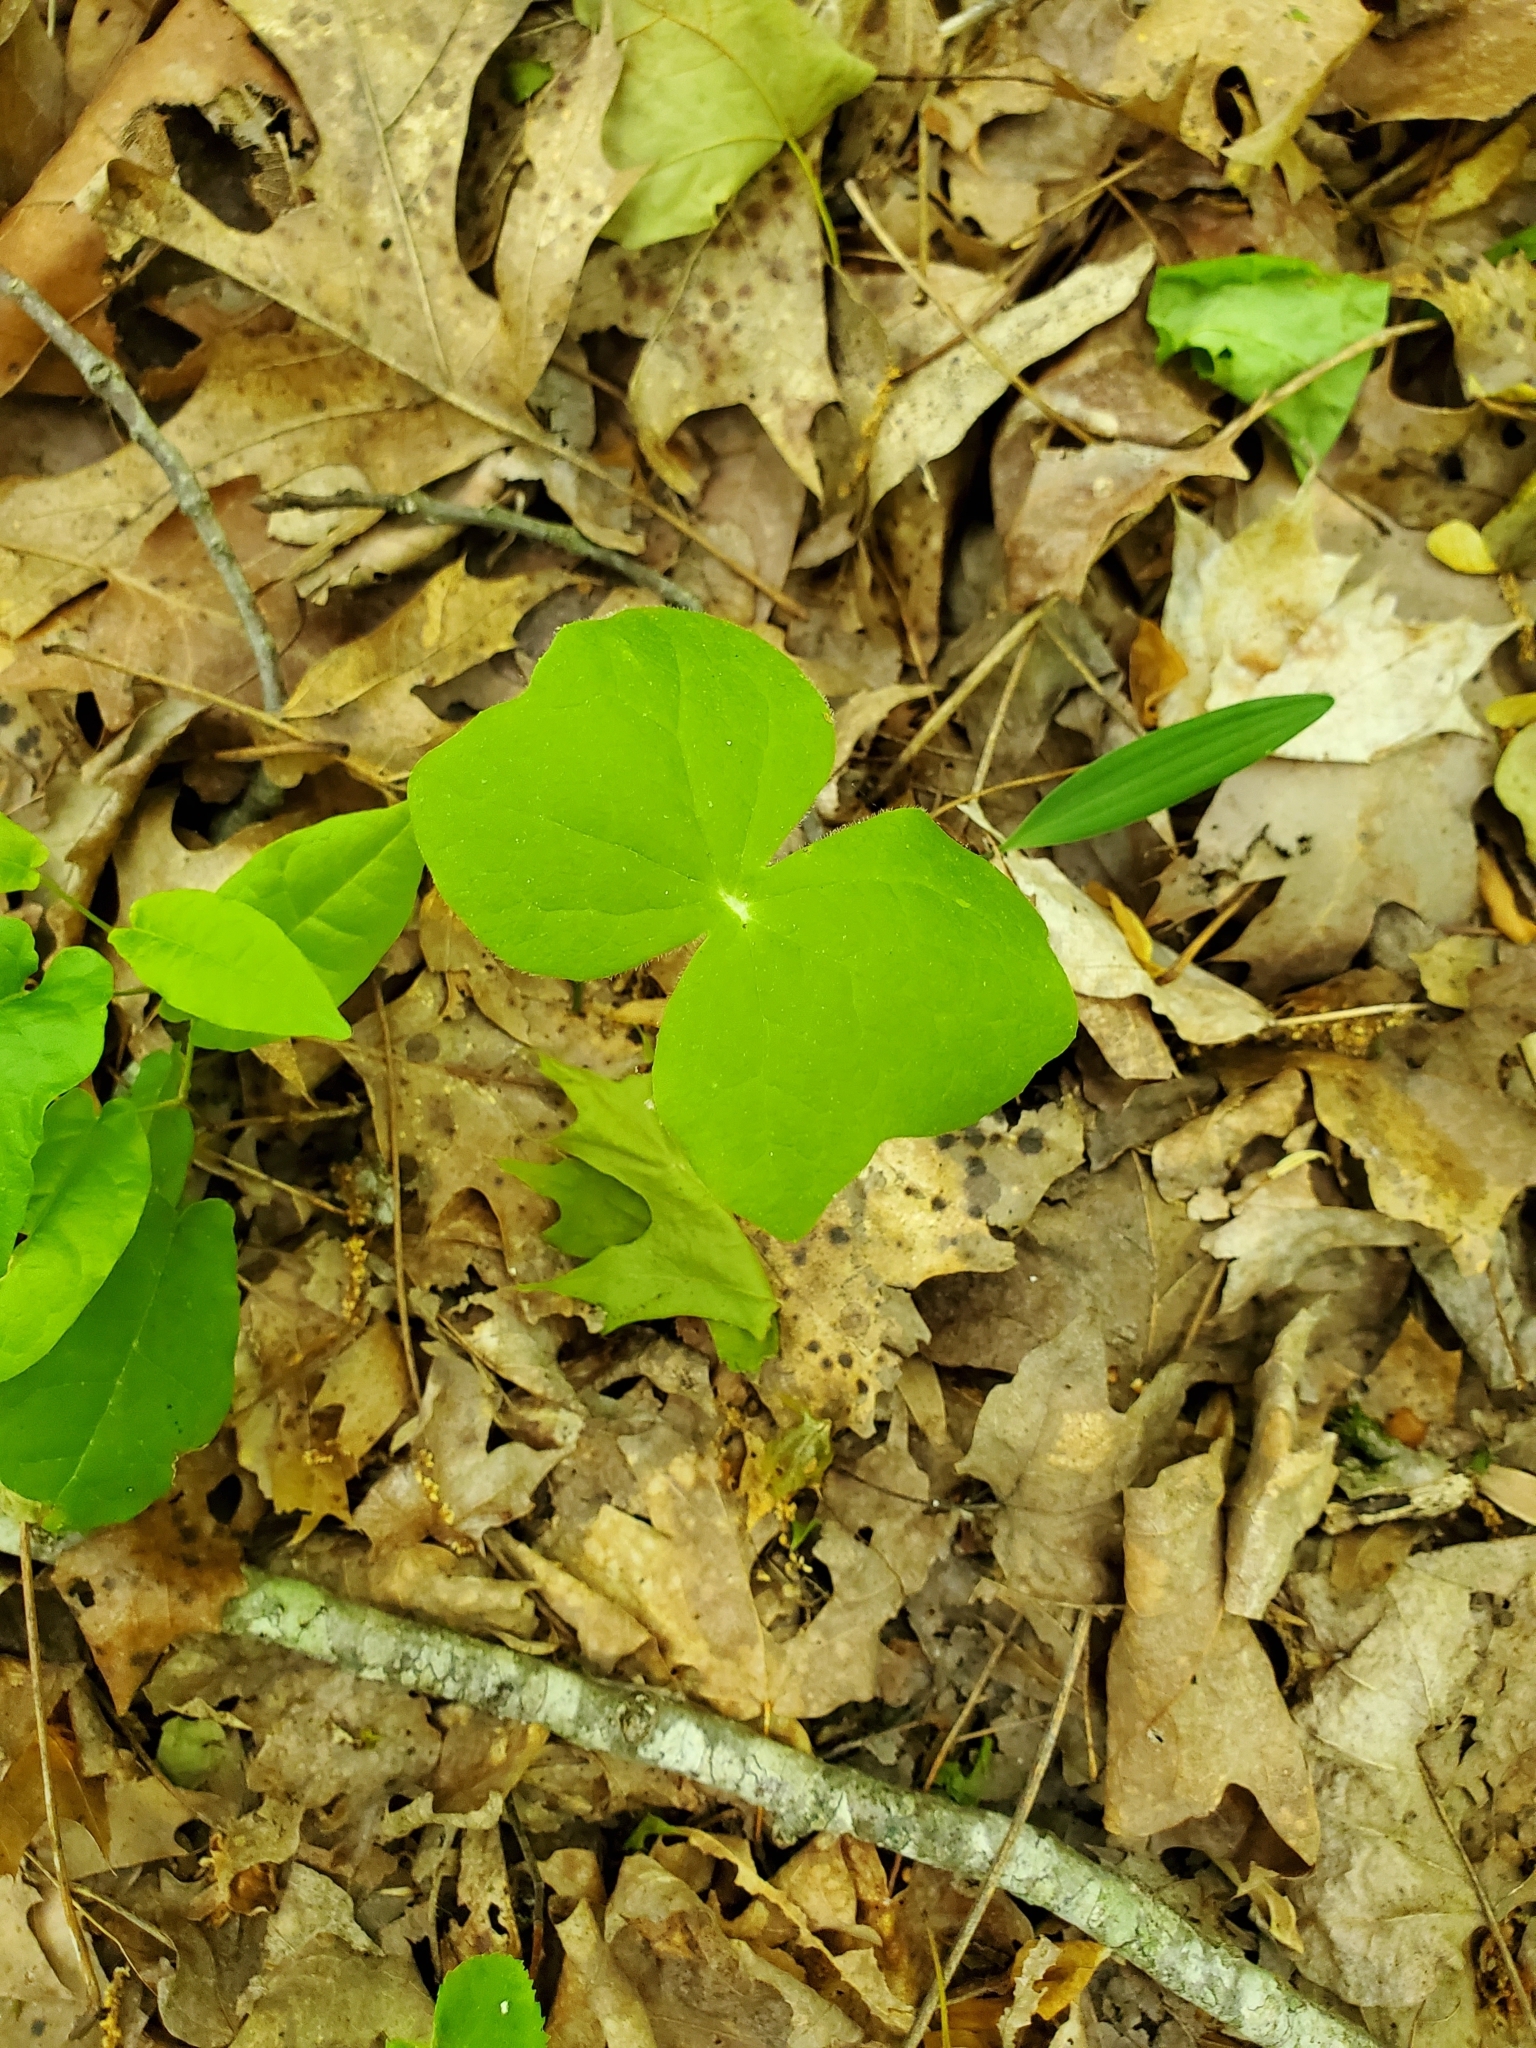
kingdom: Plantae
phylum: Tracheophyta
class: Magnoliopsida
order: Ranunculales
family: Berberidaceae
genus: Jeffersonia
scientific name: Jeffersonia diphylla
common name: Rheumatism-root
